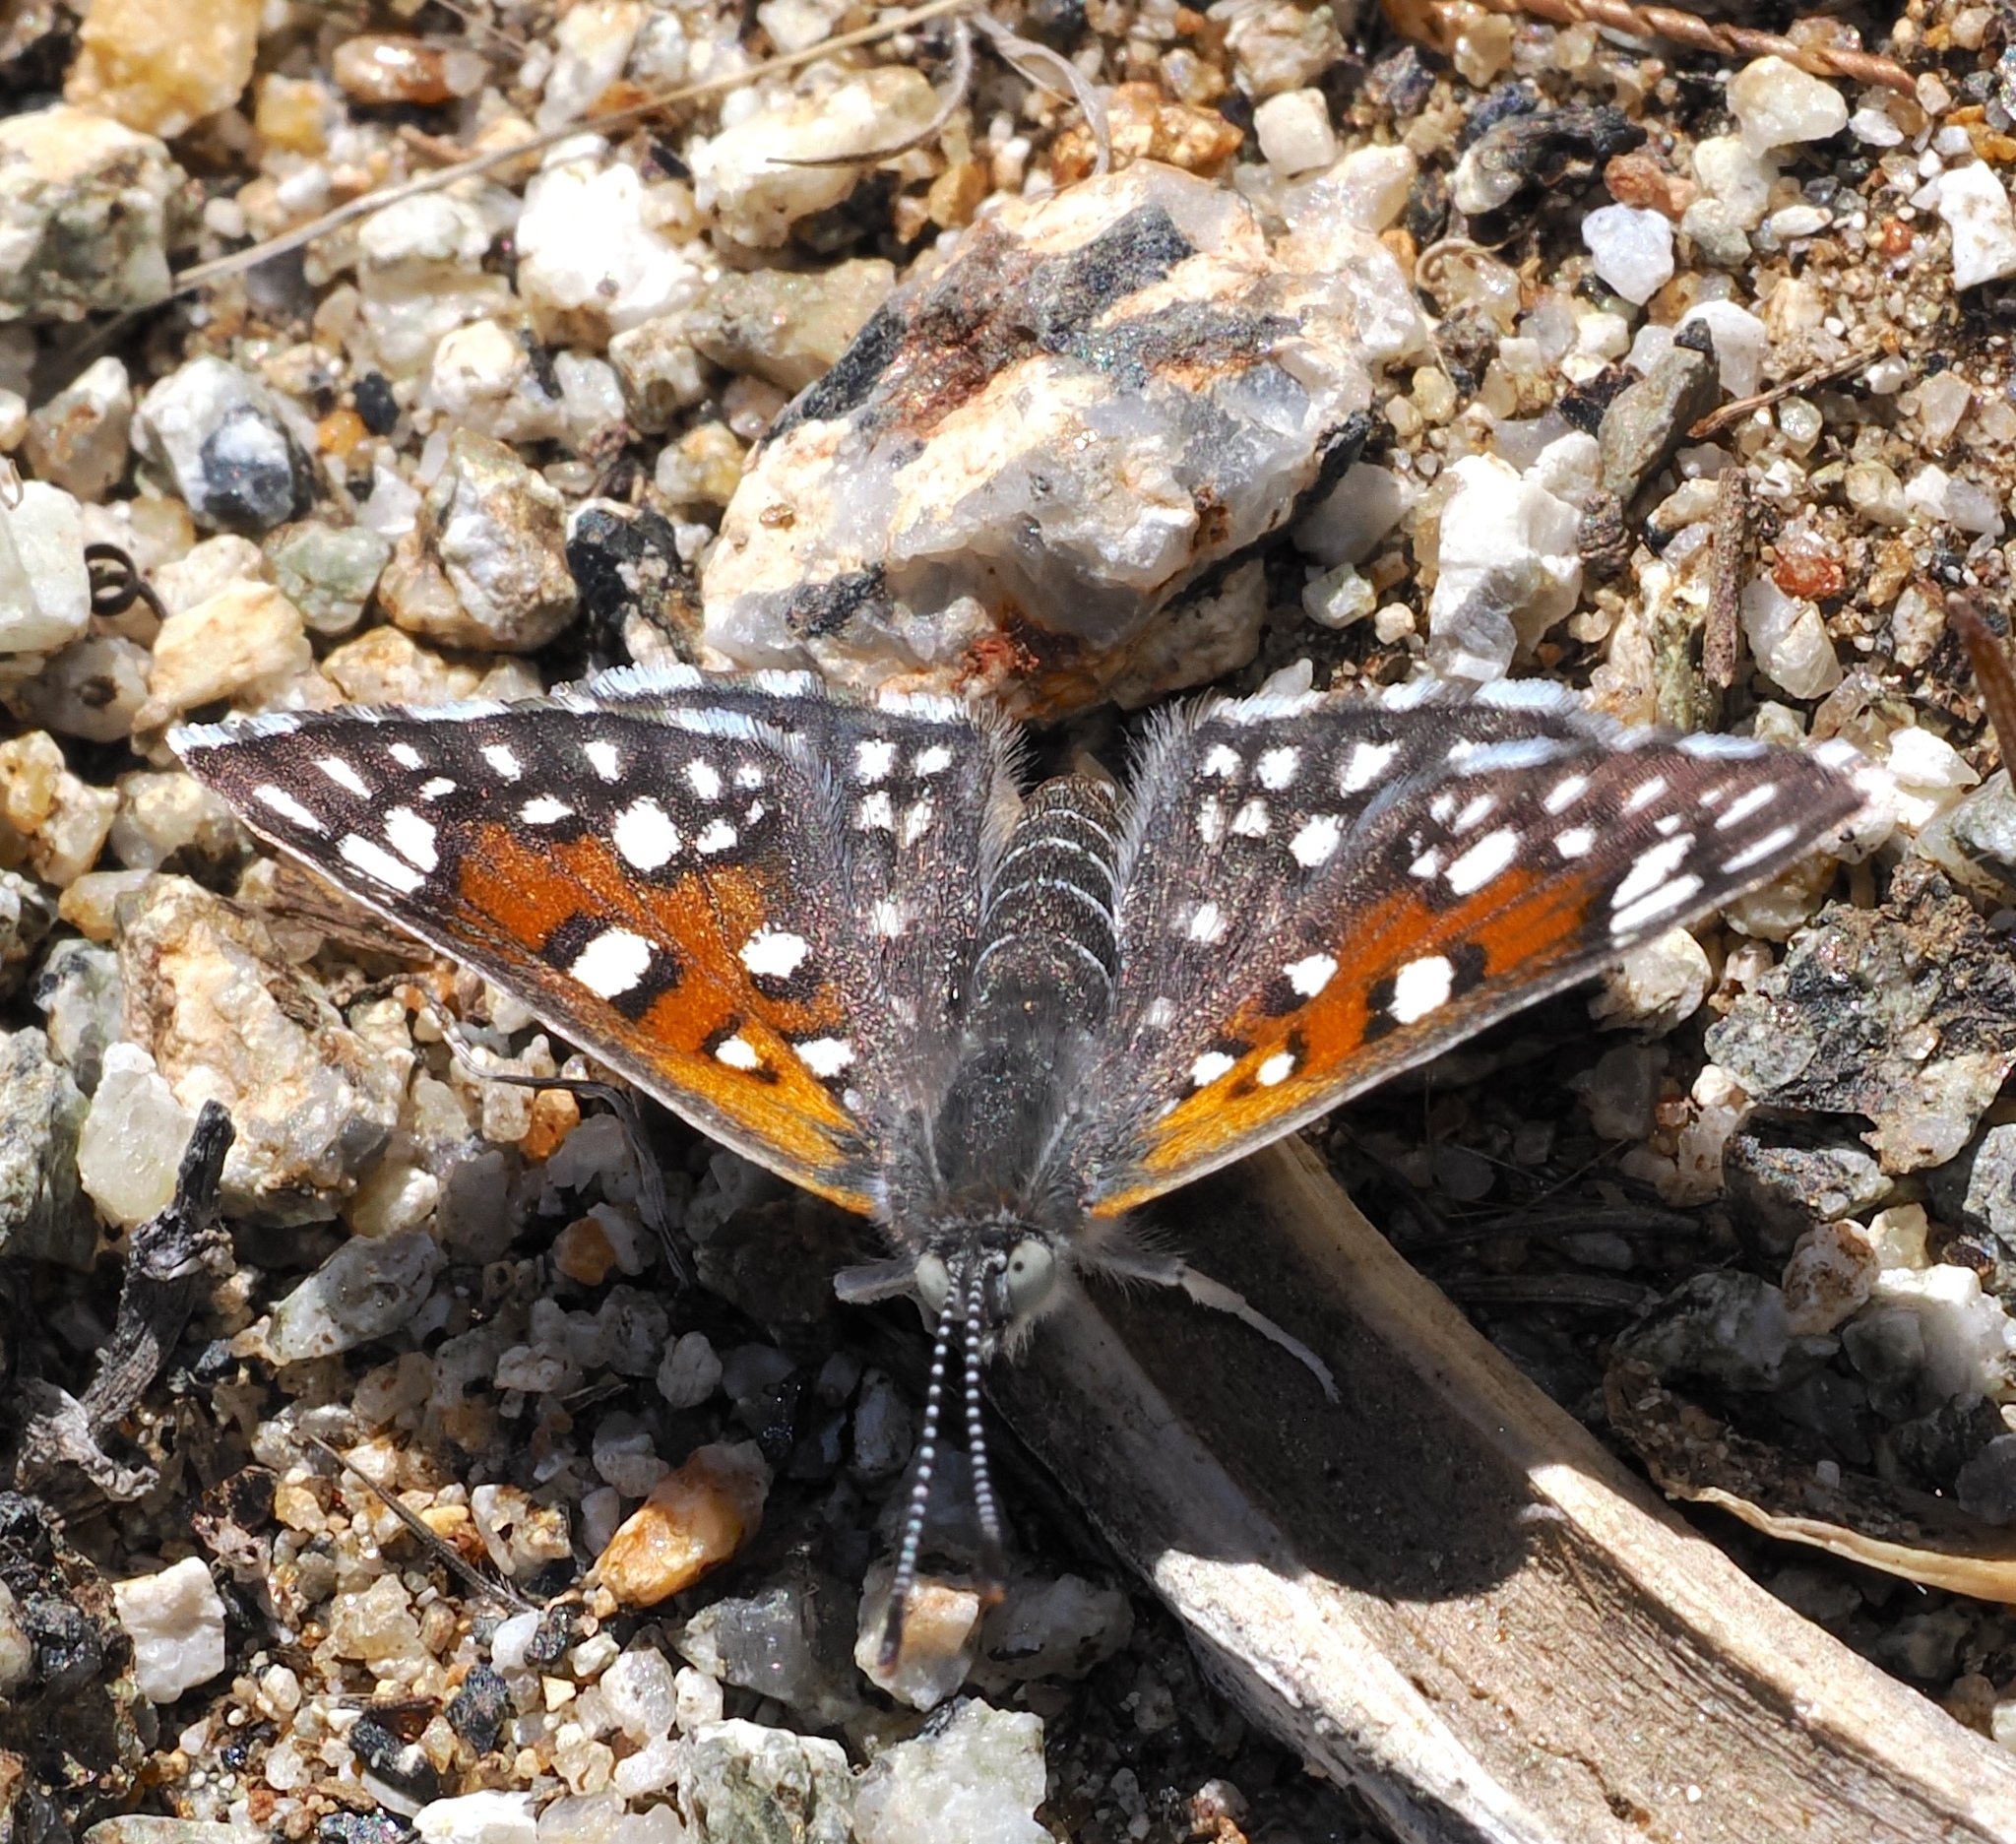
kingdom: Animalia
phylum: Arthropoda
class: Insecta
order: Lepidoptera
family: Riodinidae
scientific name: Riodinidae
